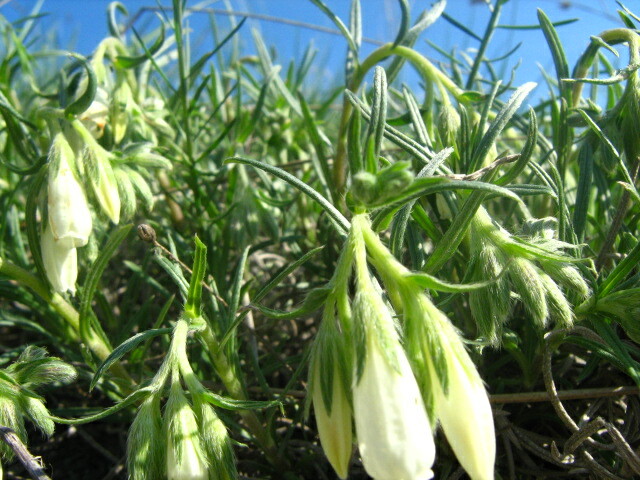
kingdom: Plantae
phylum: Tracheophyta
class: Magnoliopsida
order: Boraginales
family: Boraginaceae
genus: Onosma
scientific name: Onosma simplicissima
